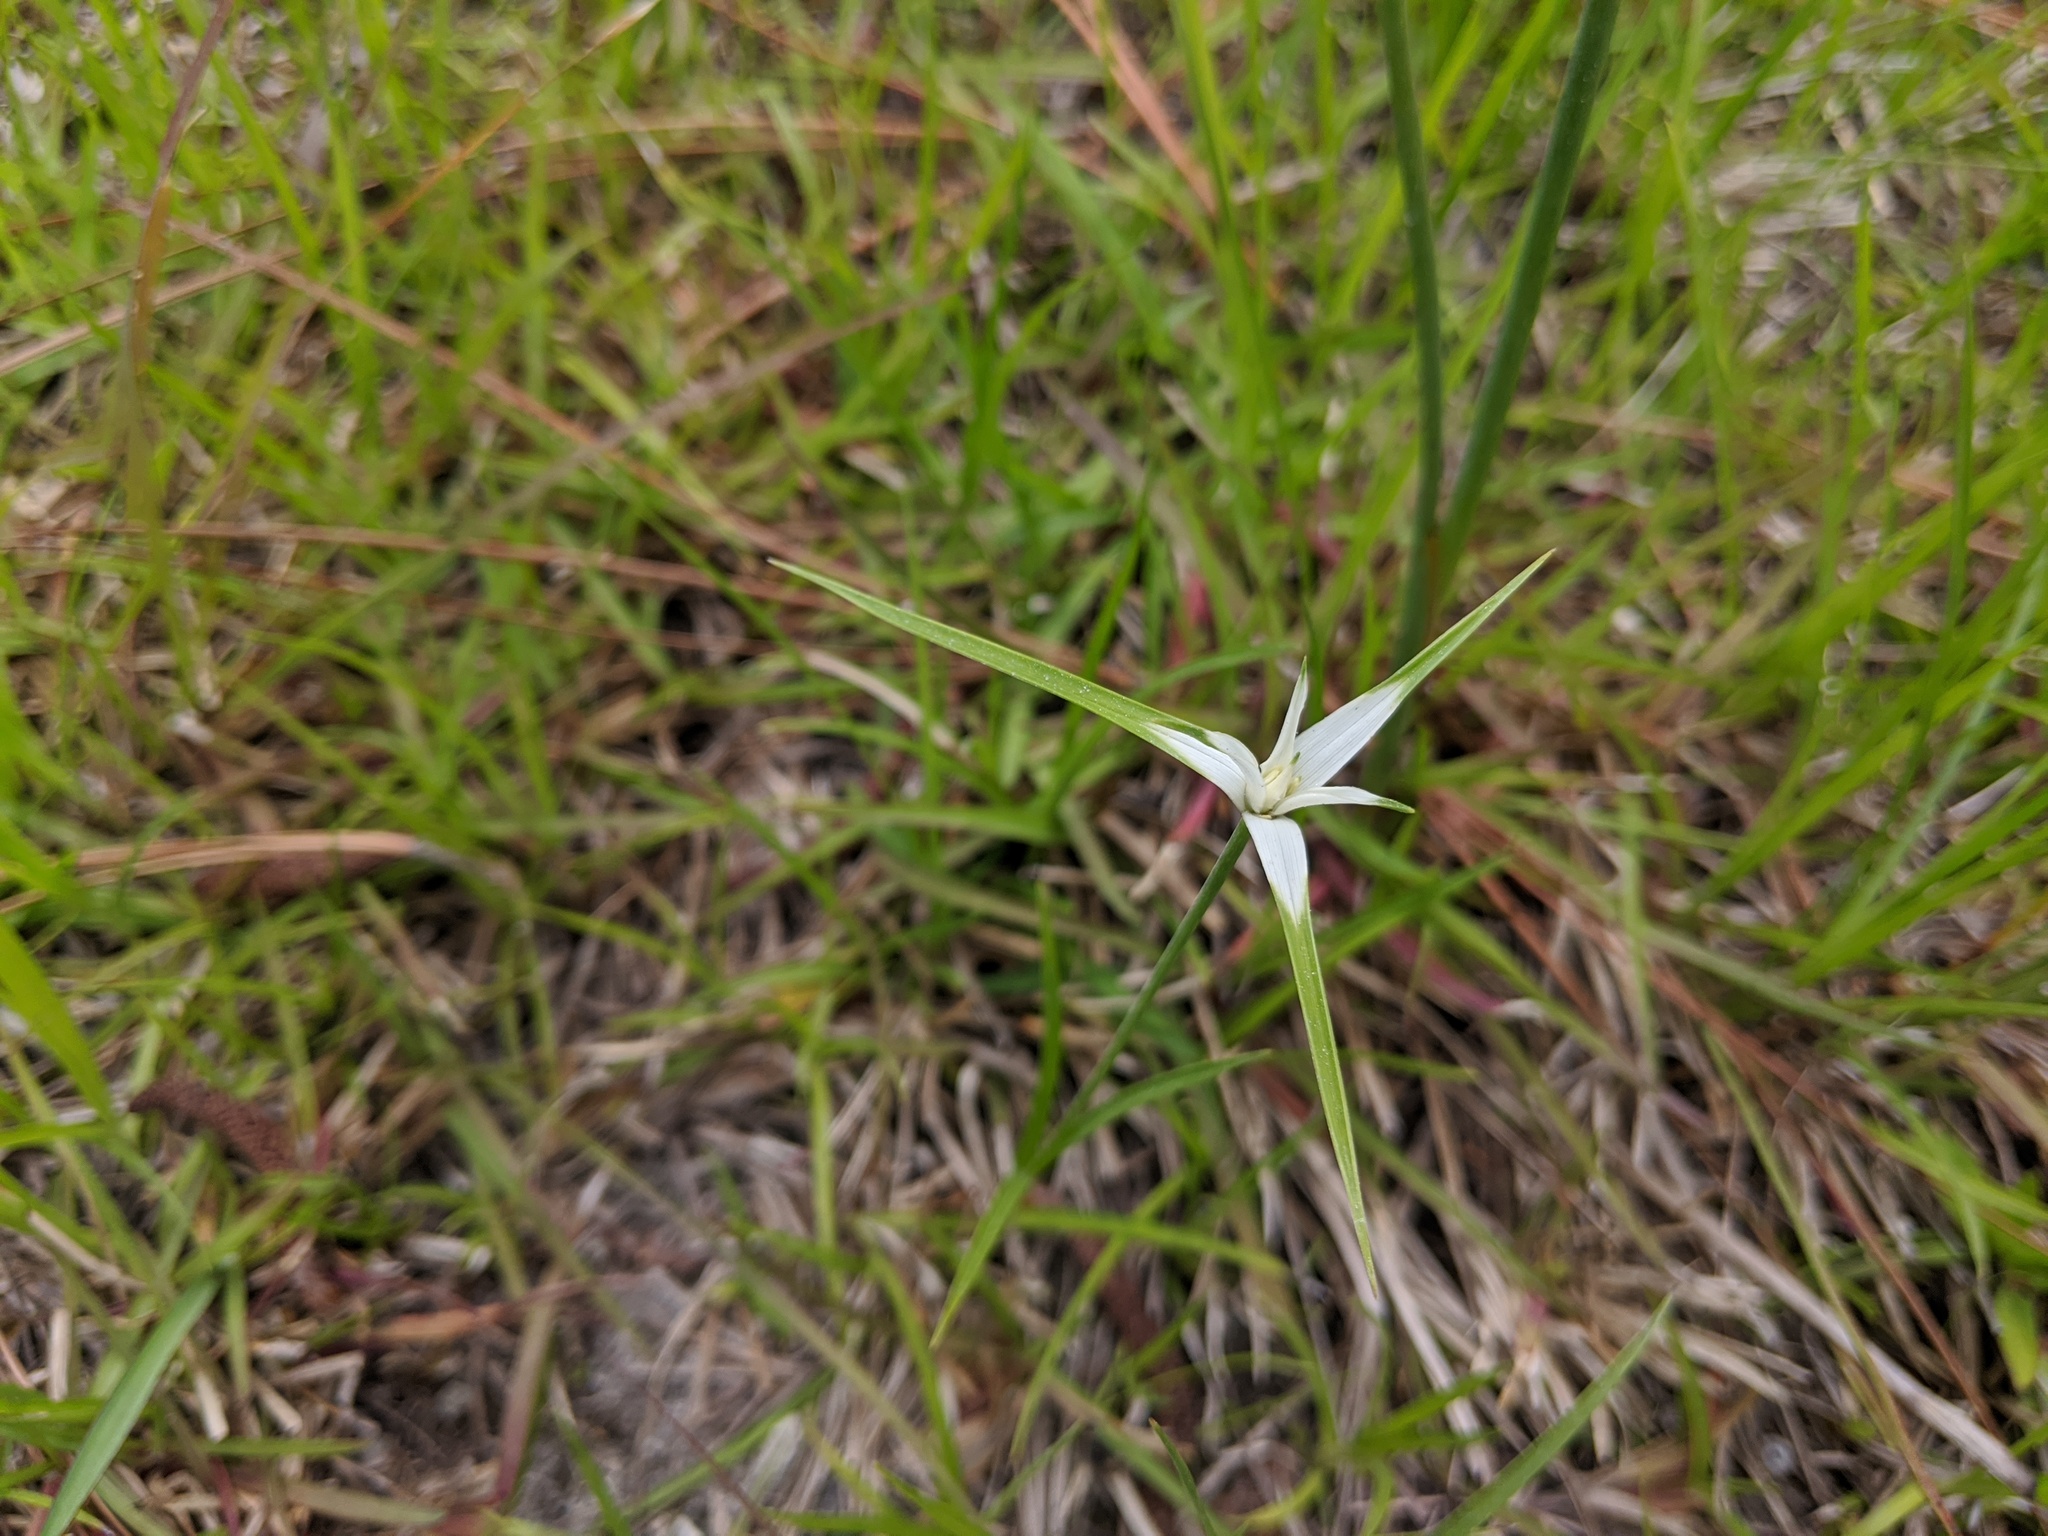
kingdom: Plantae
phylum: Tracheophyta
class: Liliopsida
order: Poales
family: Cyperaceae
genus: Rhynchospora
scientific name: Rhynchospora colorata
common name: Star sedge
